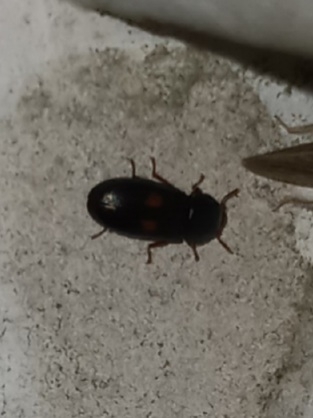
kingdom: Animalia
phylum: Arthropoda
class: Insecta
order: Coleoptera
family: Trogossitidae
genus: Tenebroides
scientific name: Tenebroides
